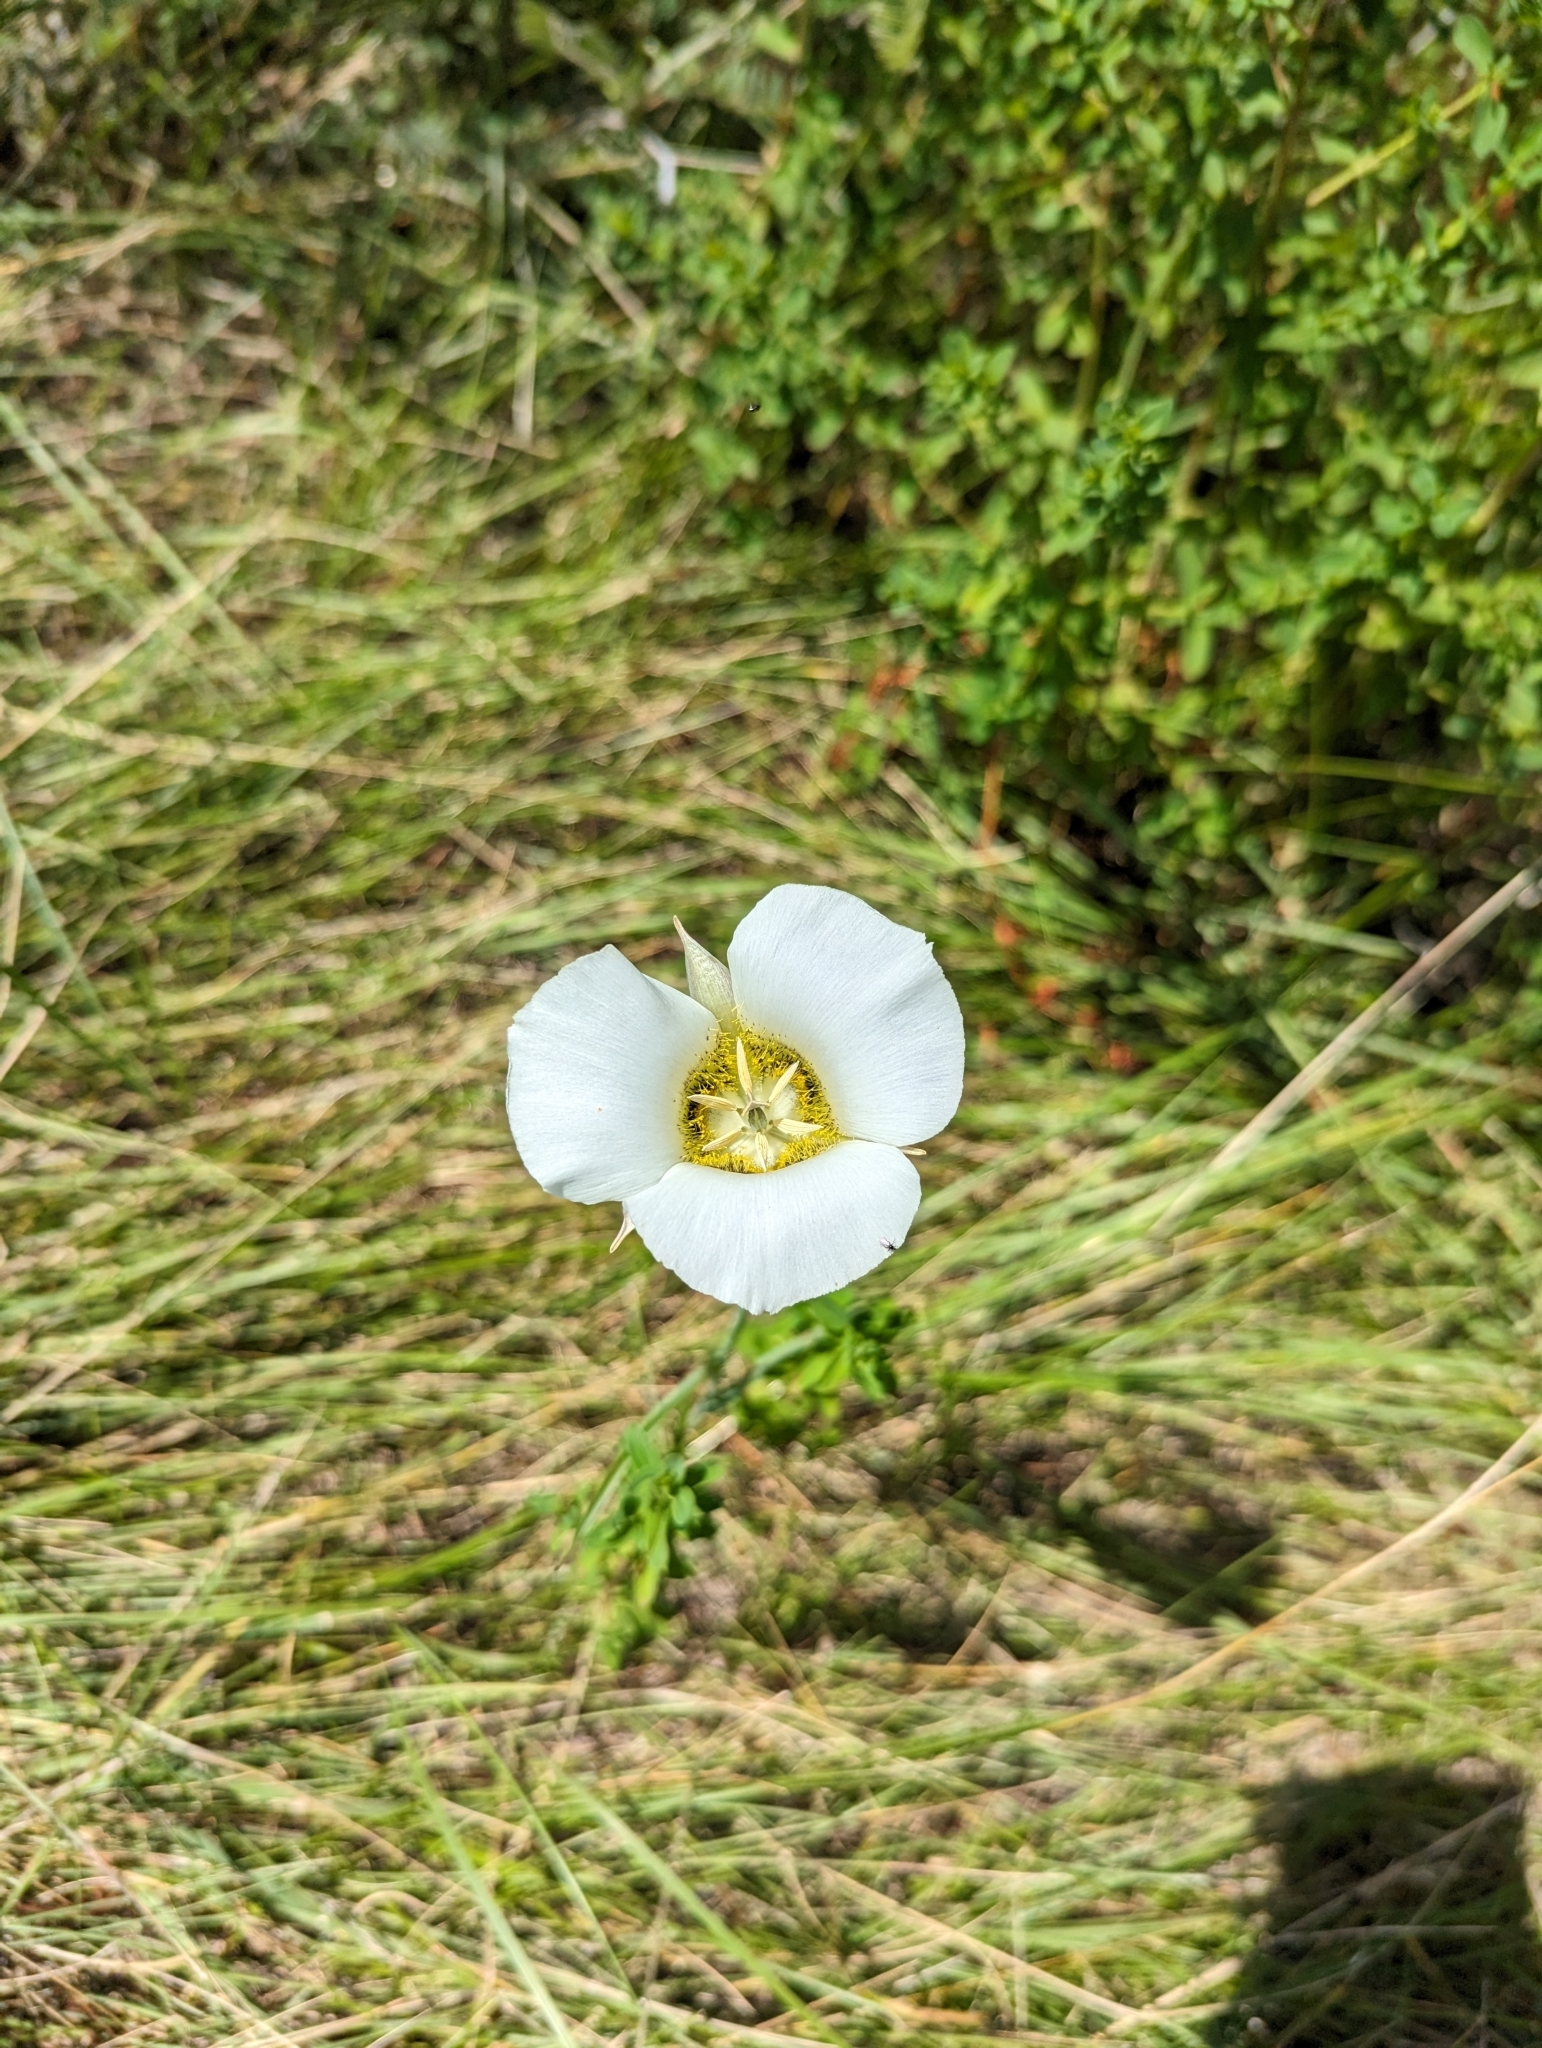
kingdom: Plantae
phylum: Tracheophyta
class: Liliopsida
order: Liliales
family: Liliaceae
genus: Calochortus
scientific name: Calochortus gunnisonii
